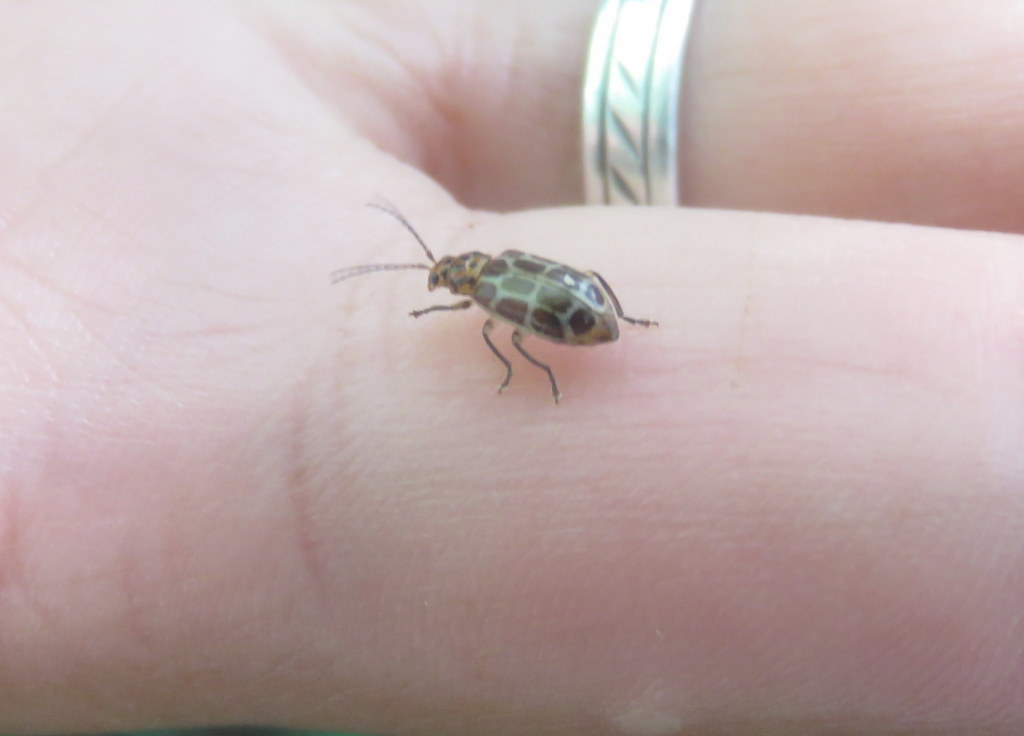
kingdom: Animalia
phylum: Arthropoda
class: Insecta
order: Coleoptera
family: Chrysomelidae
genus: Anisobrotica
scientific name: Anisobrotica
